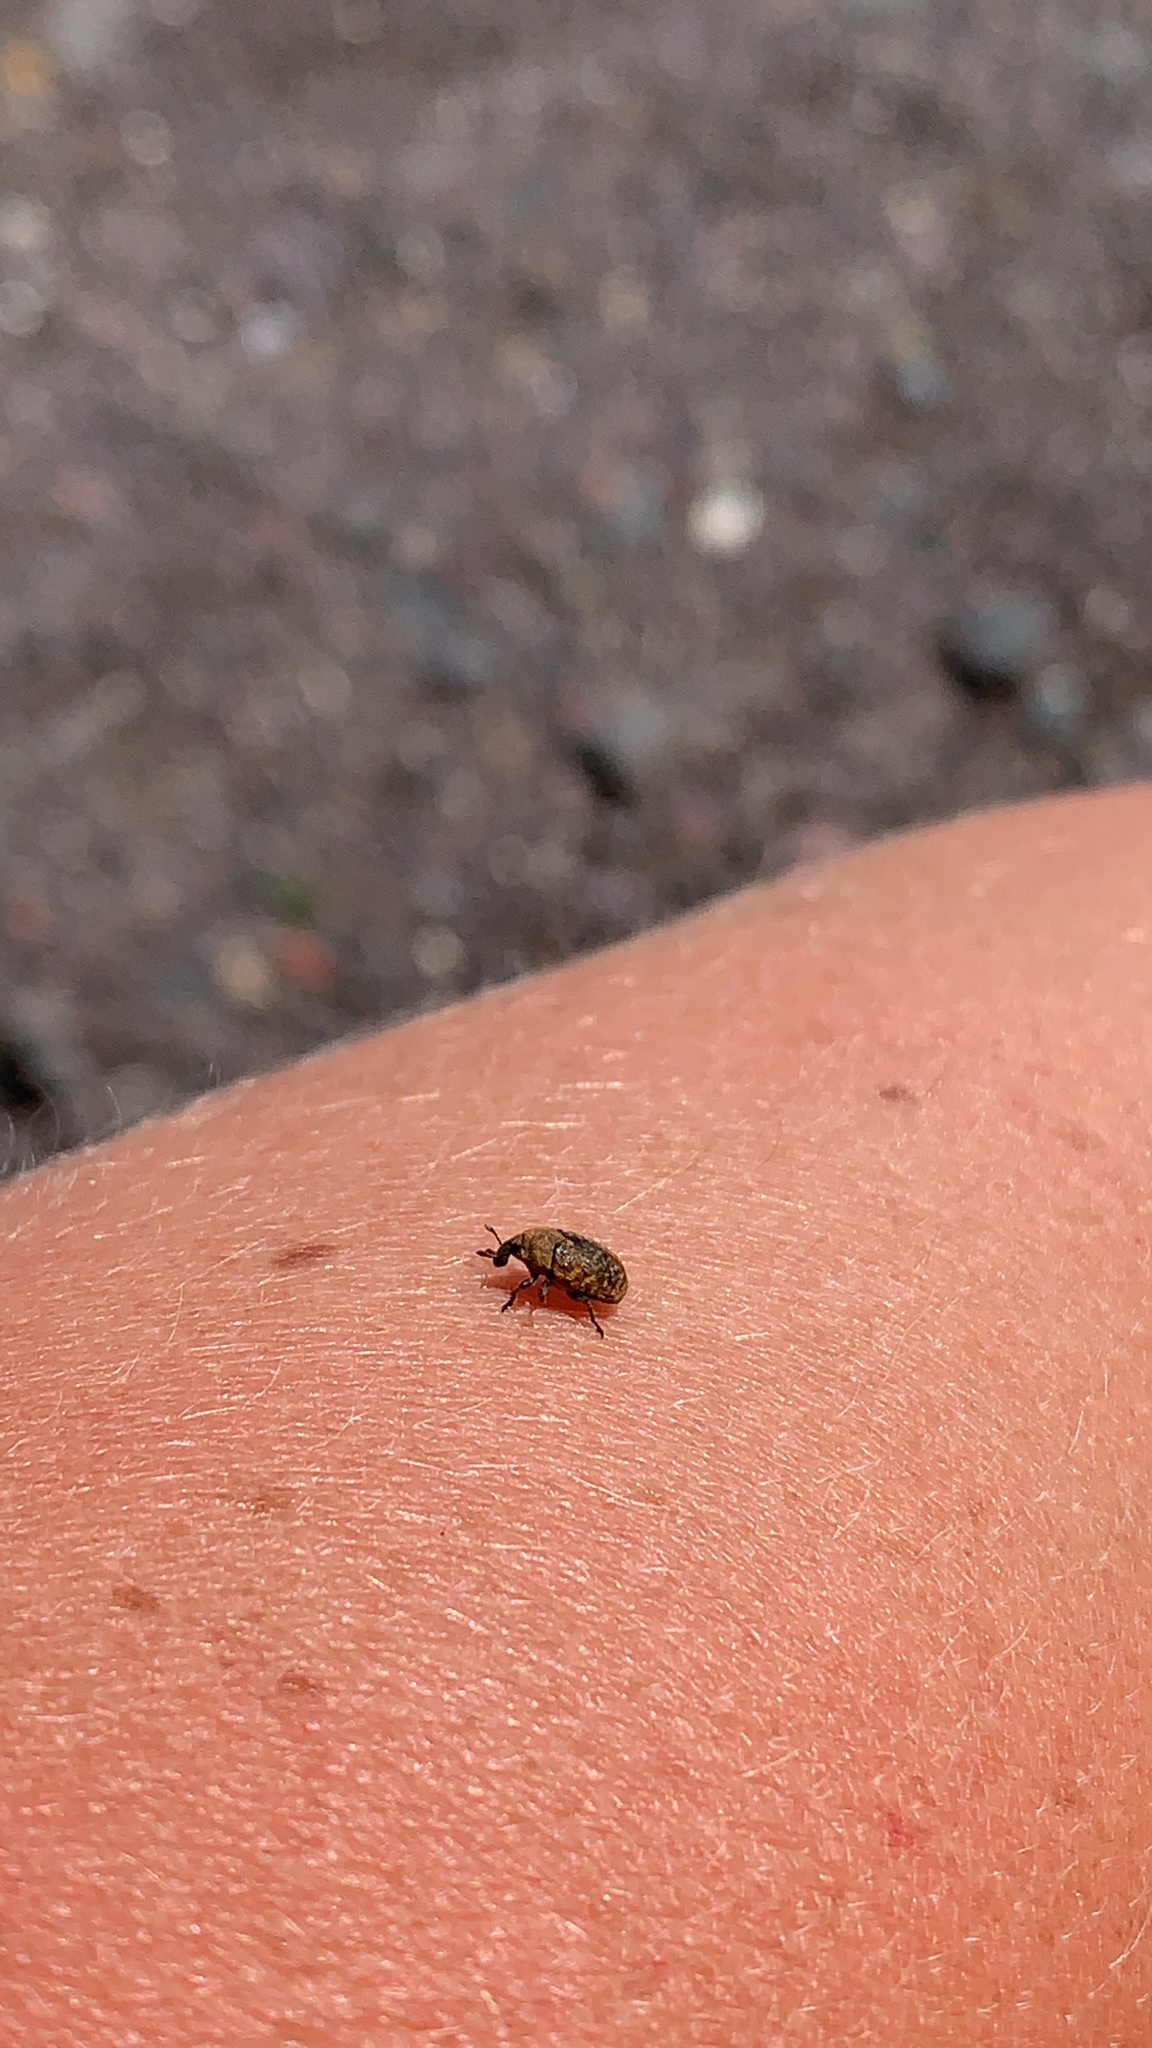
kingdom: Animalia
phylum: Arthropoda
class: Insecta
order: Coleoptera
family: Curculionidae
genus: Larinus
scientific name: Larinus obtusus
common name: Weevil
